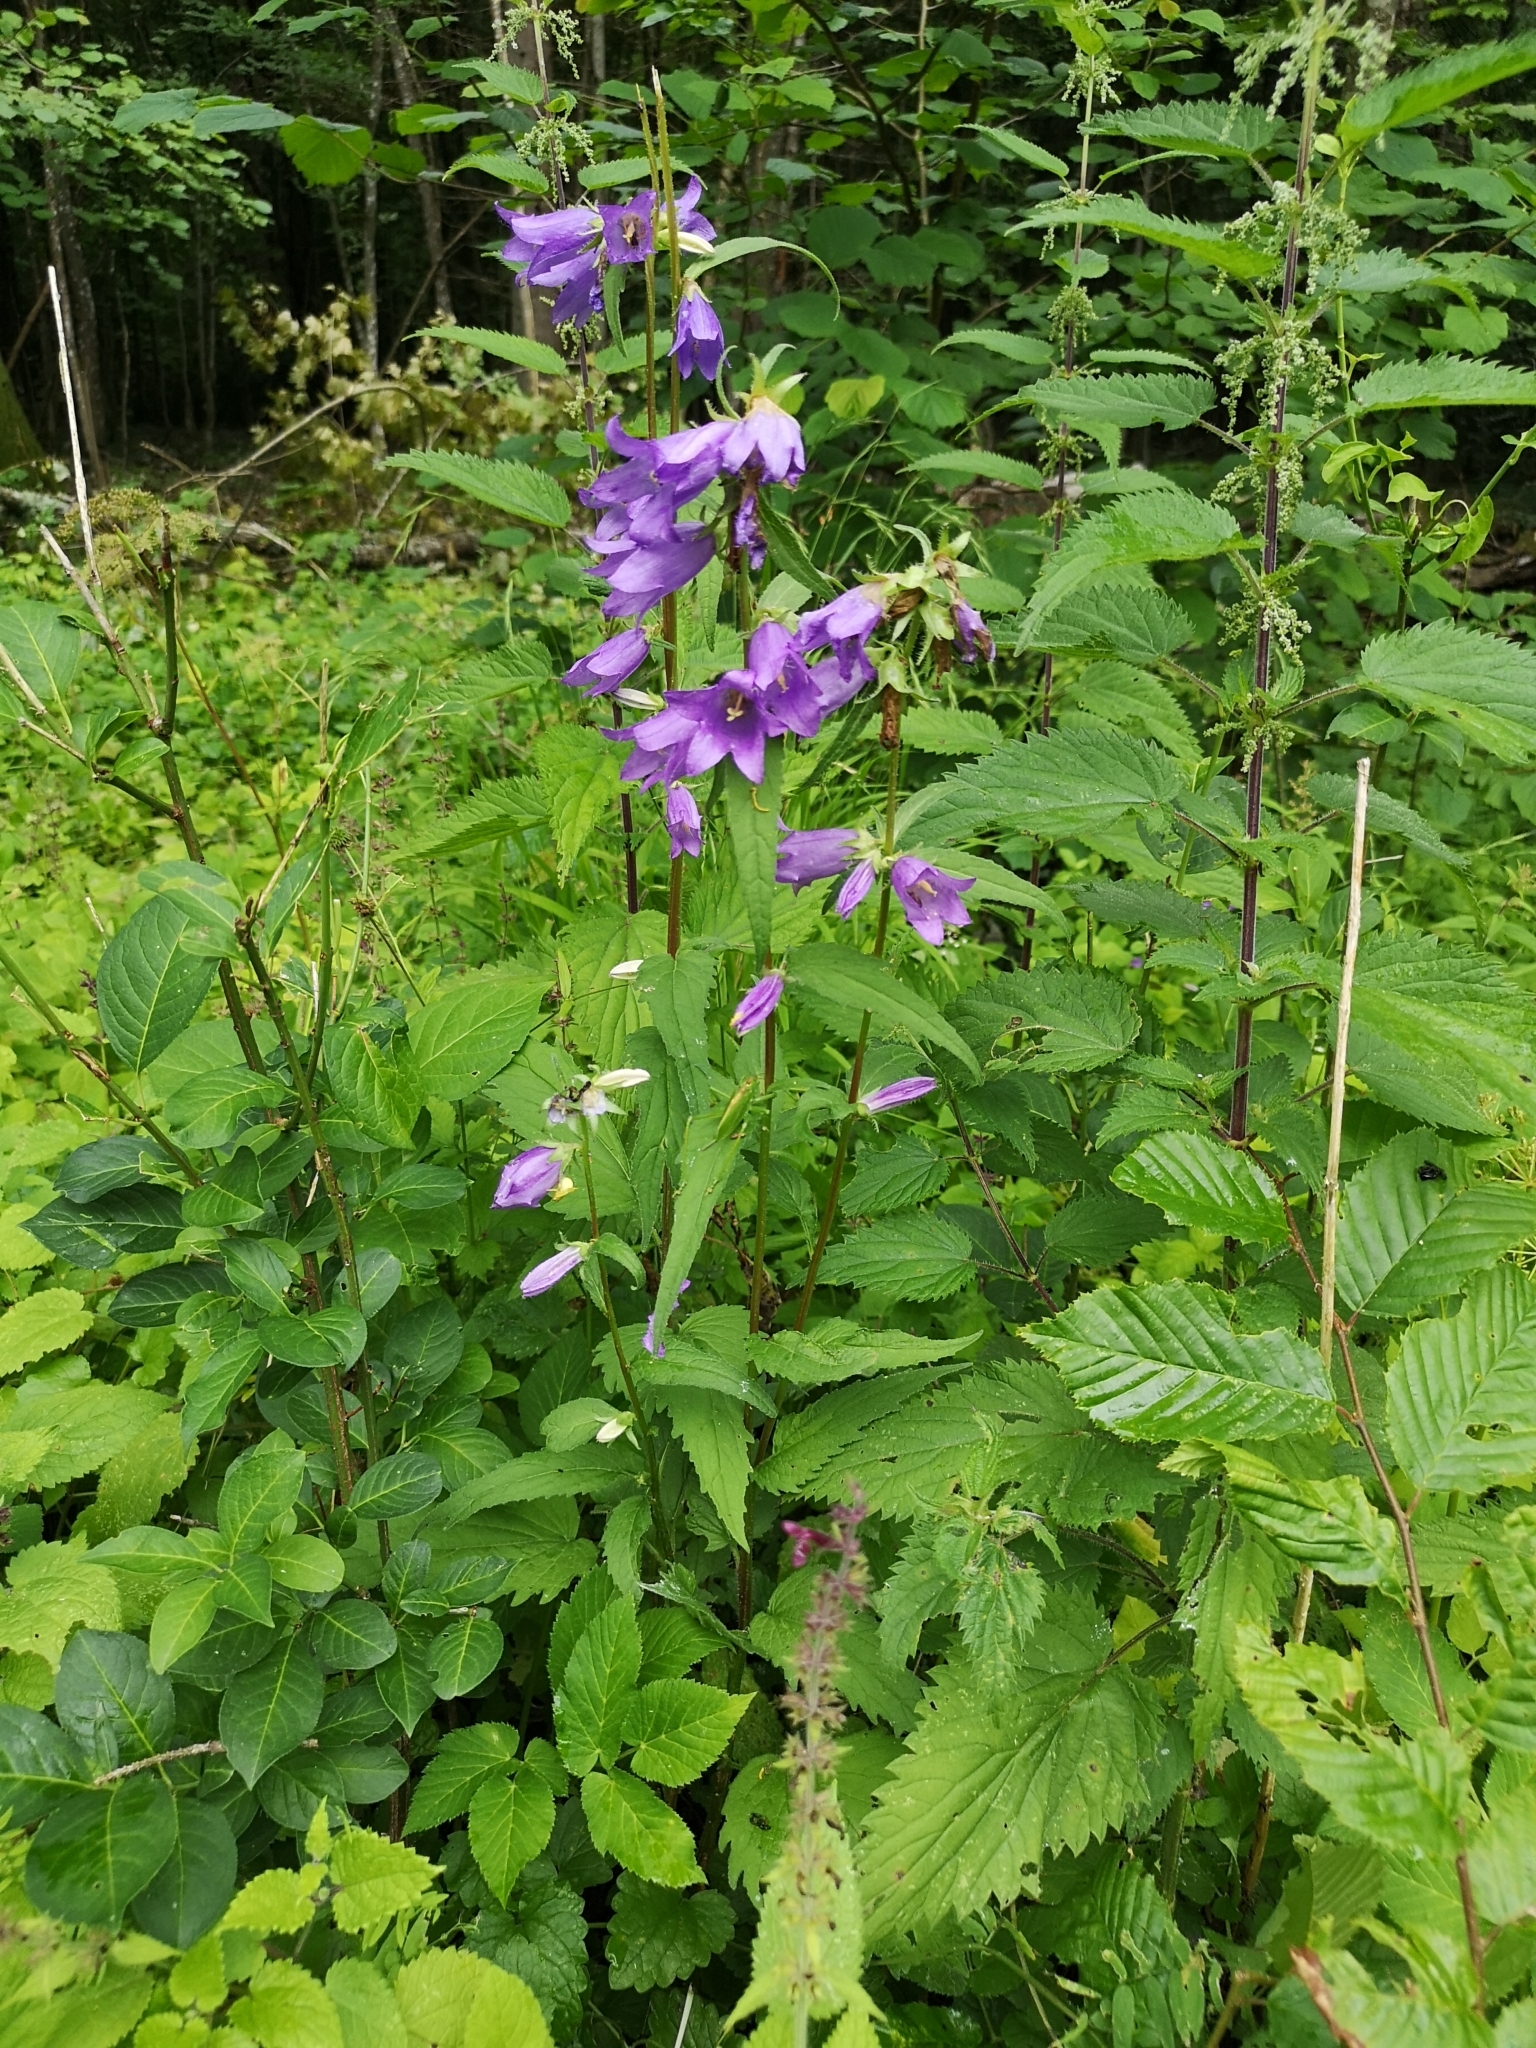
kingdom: Plantae
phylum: Tracheophyta
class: Magnoliopsida
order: Asterales
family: Campanulaceae
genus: Campanula
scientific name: Campanula trachelium
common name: Nettle-leaved bellflower
